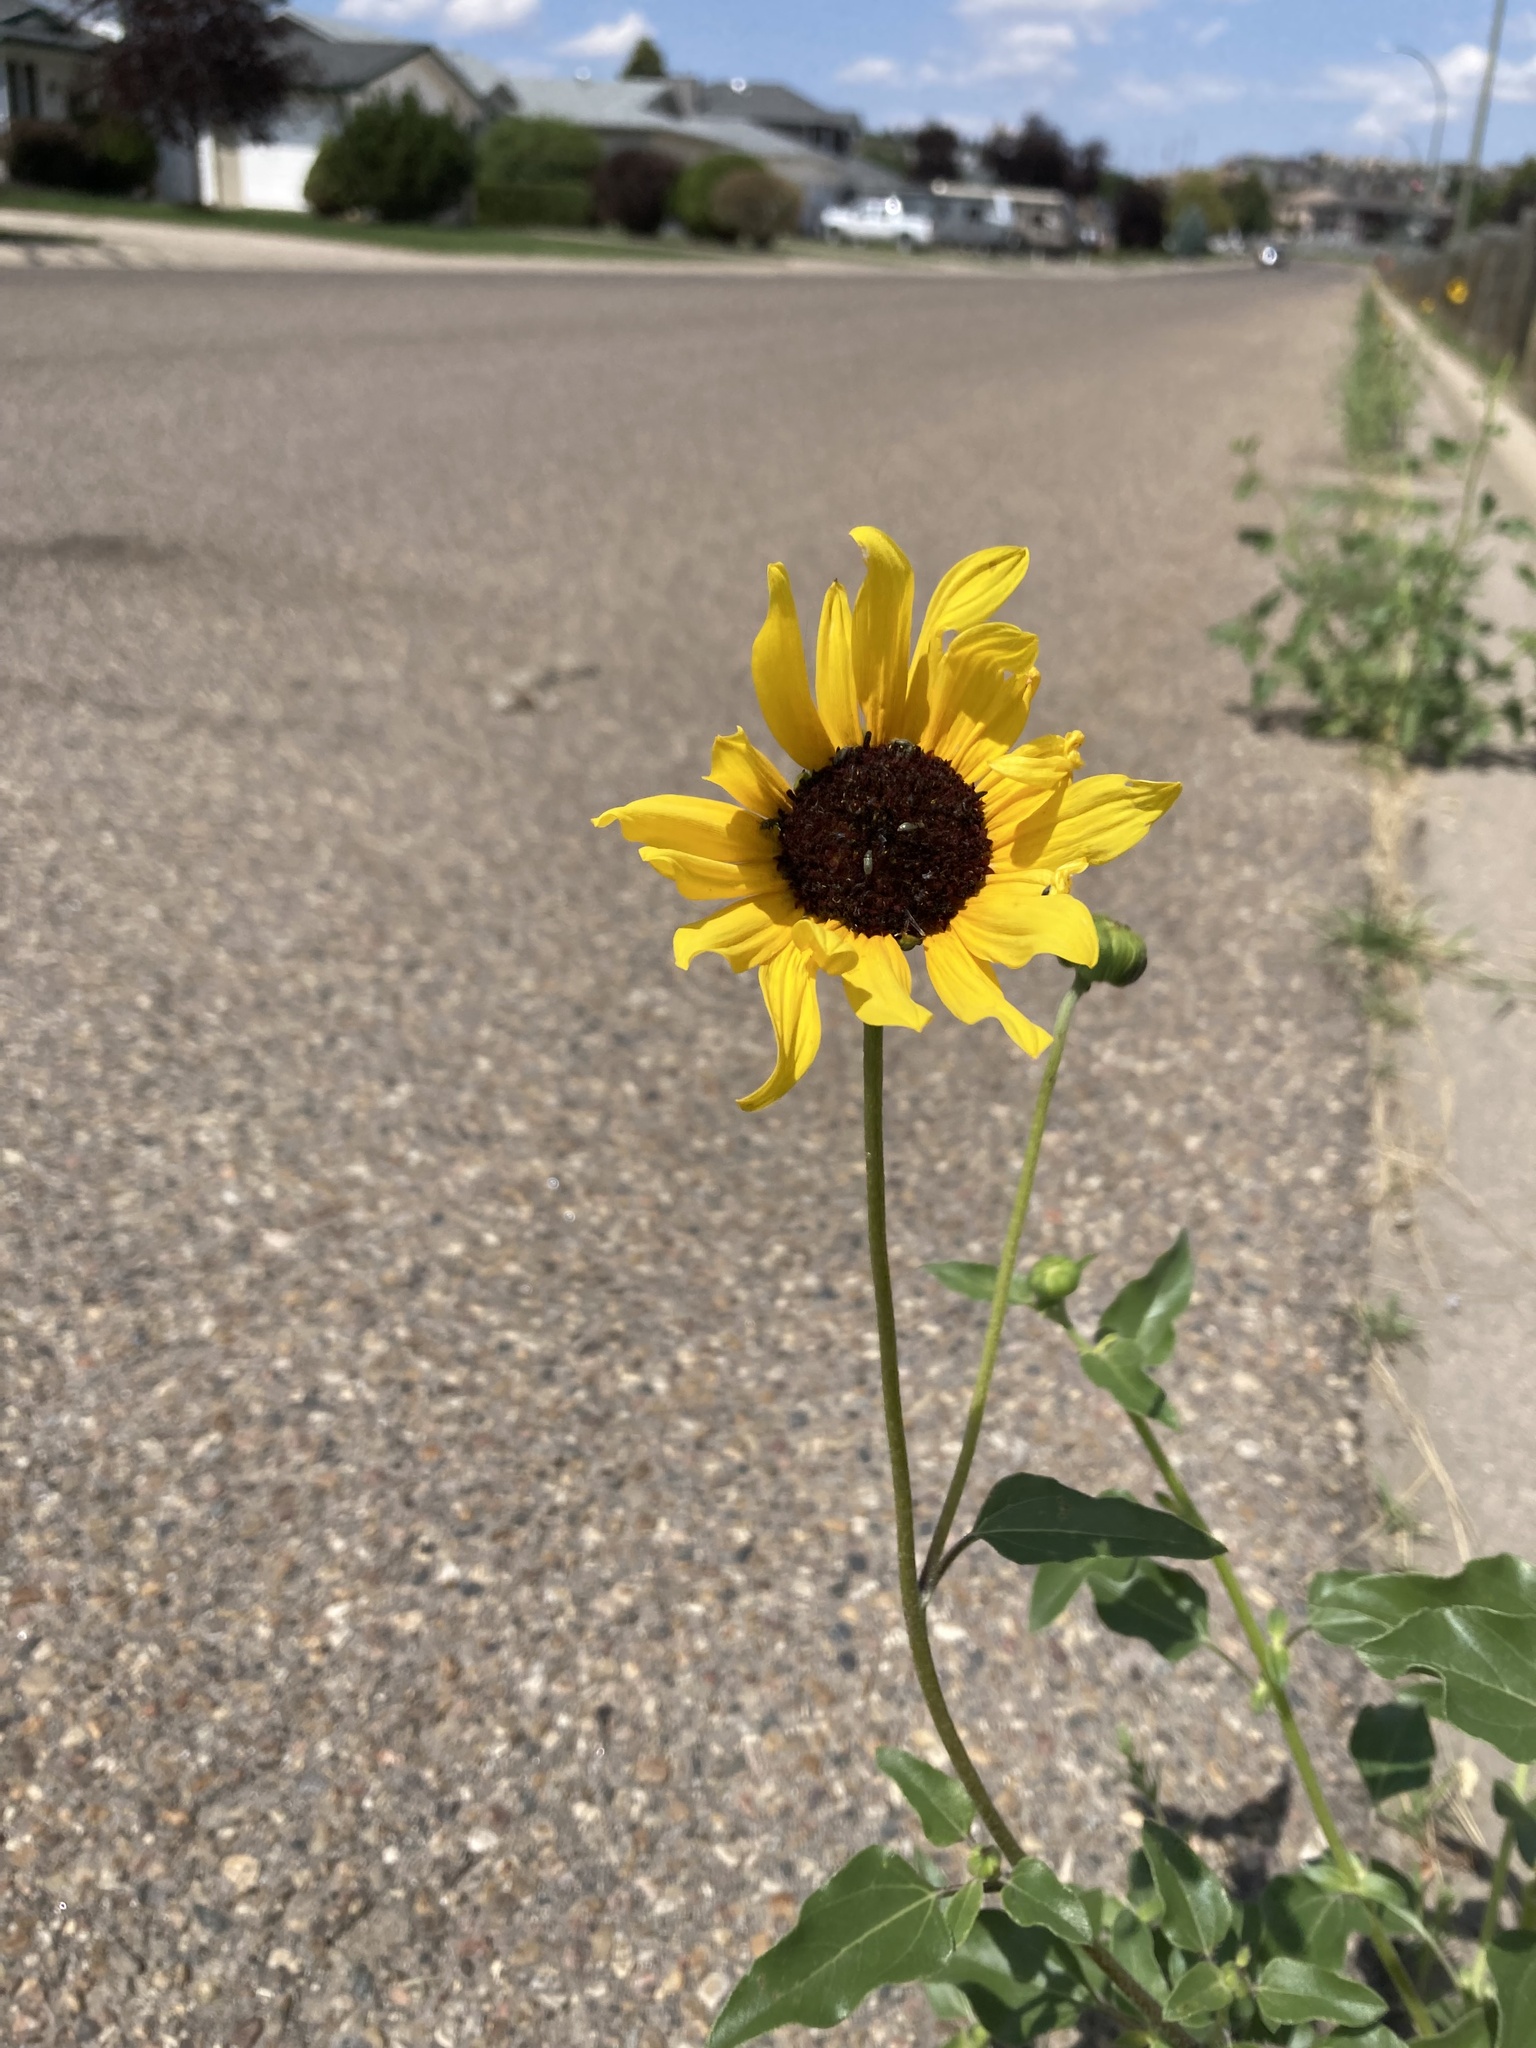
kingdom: Plantae
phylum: Tracheophyta
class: Magnoliopsida
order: Asterales
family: Asteraceae
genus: Helianthus
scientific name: Helianthus petiolaris
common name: Lesser sunflower
